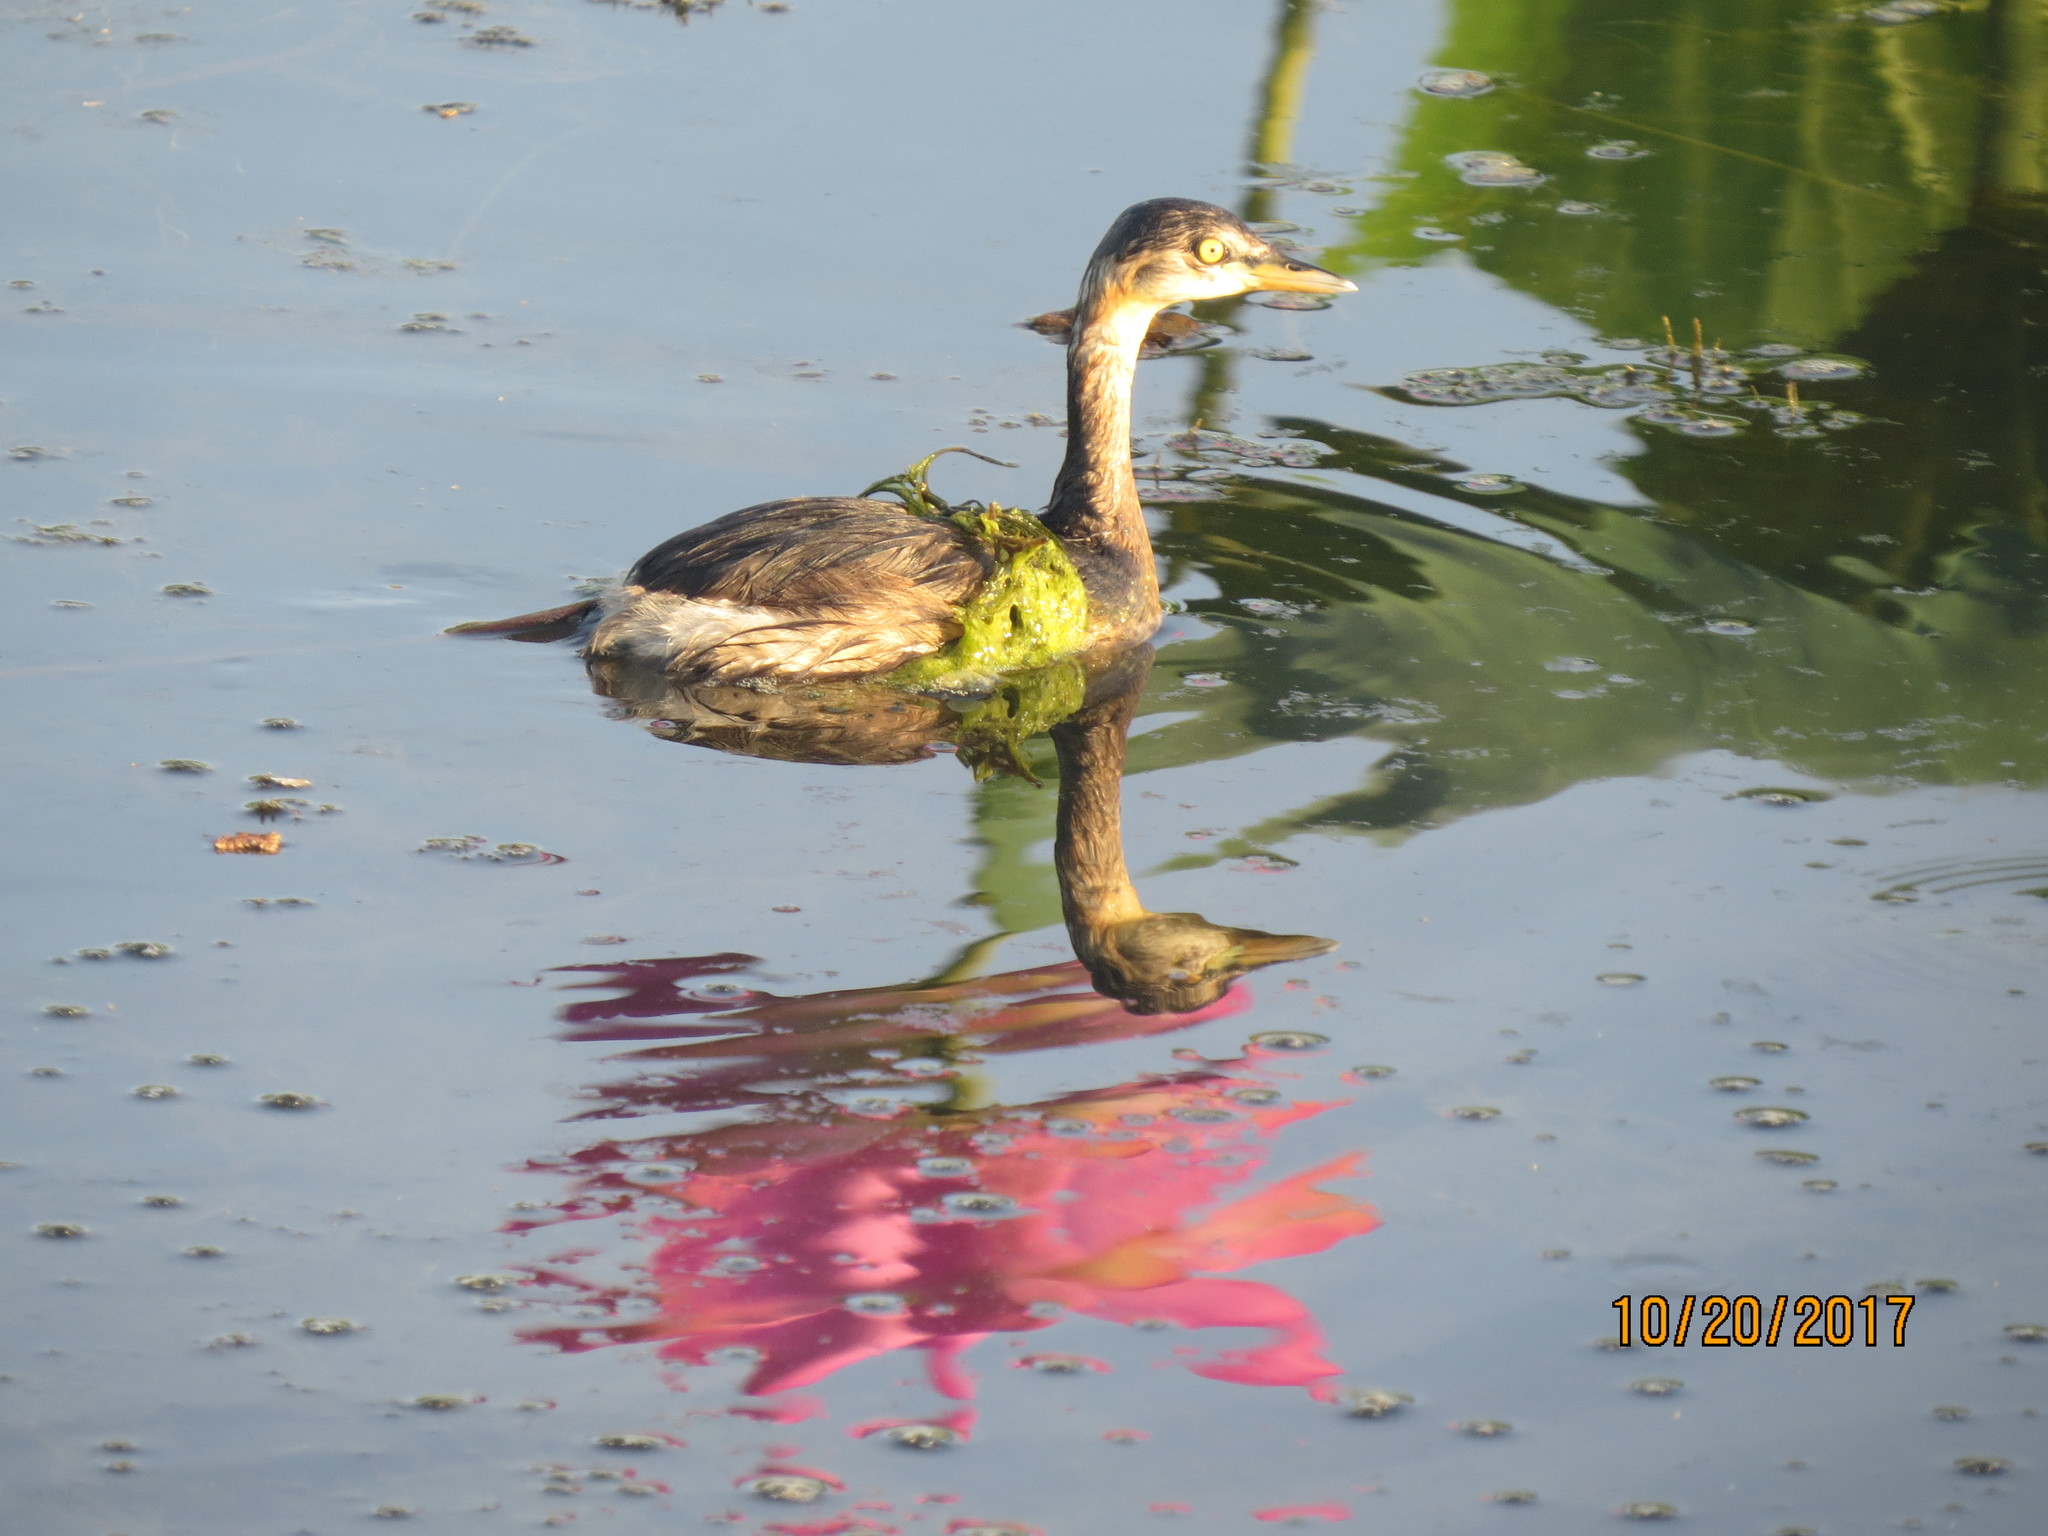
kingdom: Animalia
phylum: Chordata
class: Aves
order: Podicipediformes
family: Podicipedidae
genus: Tachybaptus
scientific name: Tachybaptus novaehollandiae
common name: Australasian grebe
